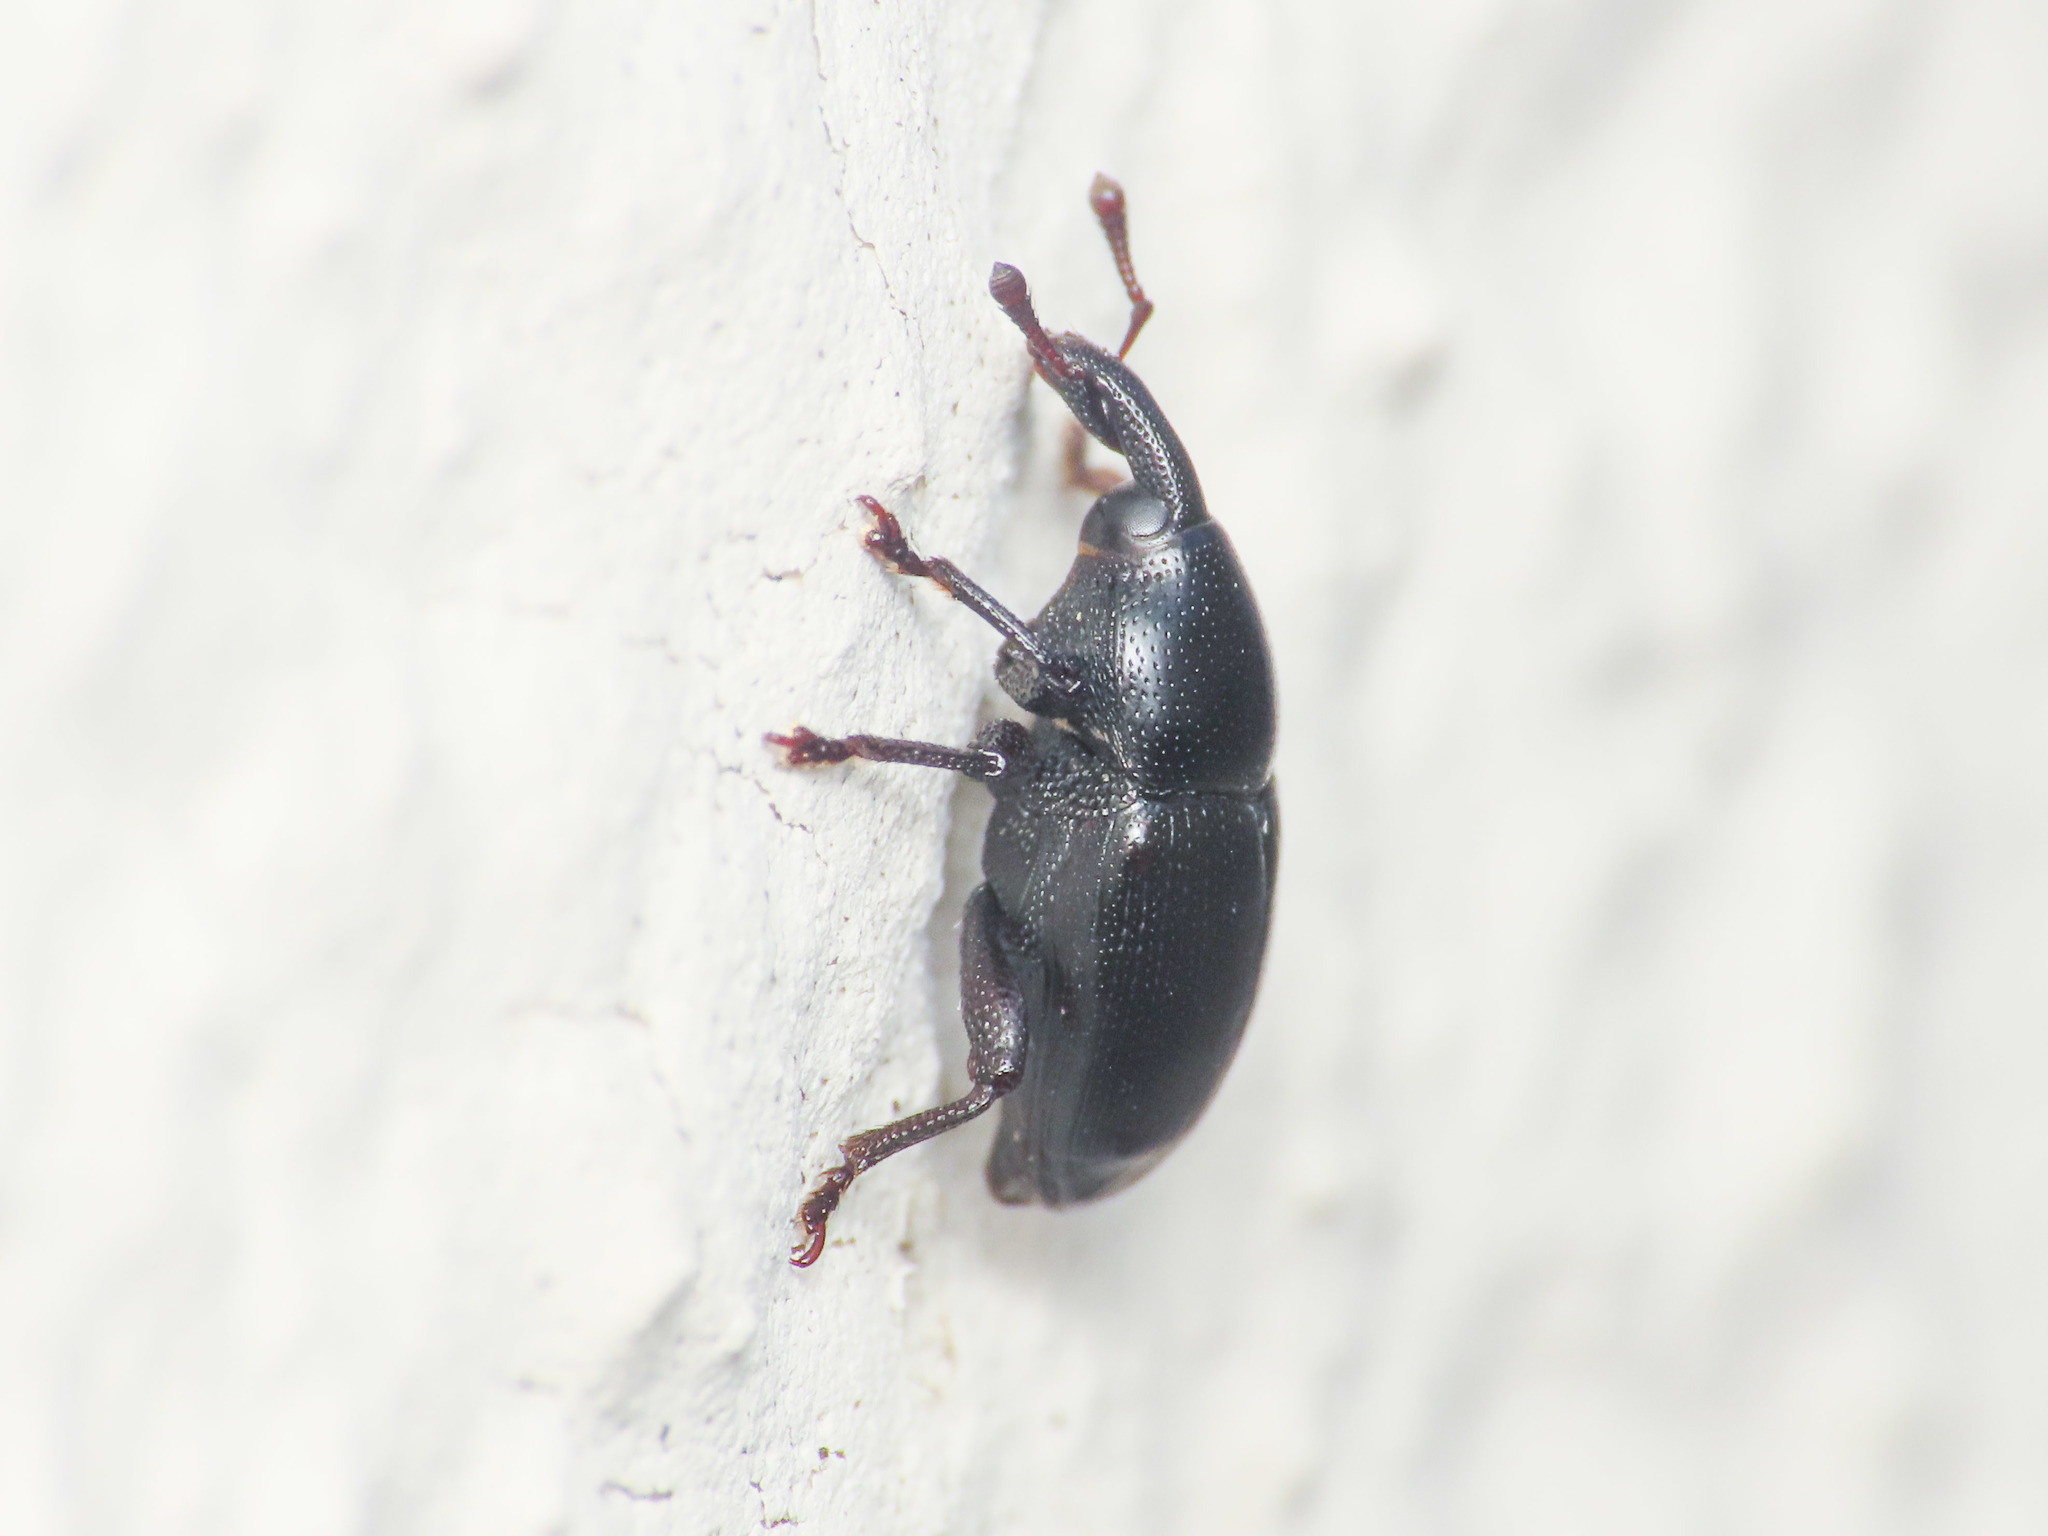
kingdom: Animalia
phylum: Arthropoda
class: Insecta
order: Coleoptera
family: Curculionidae
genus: Malvaevora
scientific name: Malvaevora timida
